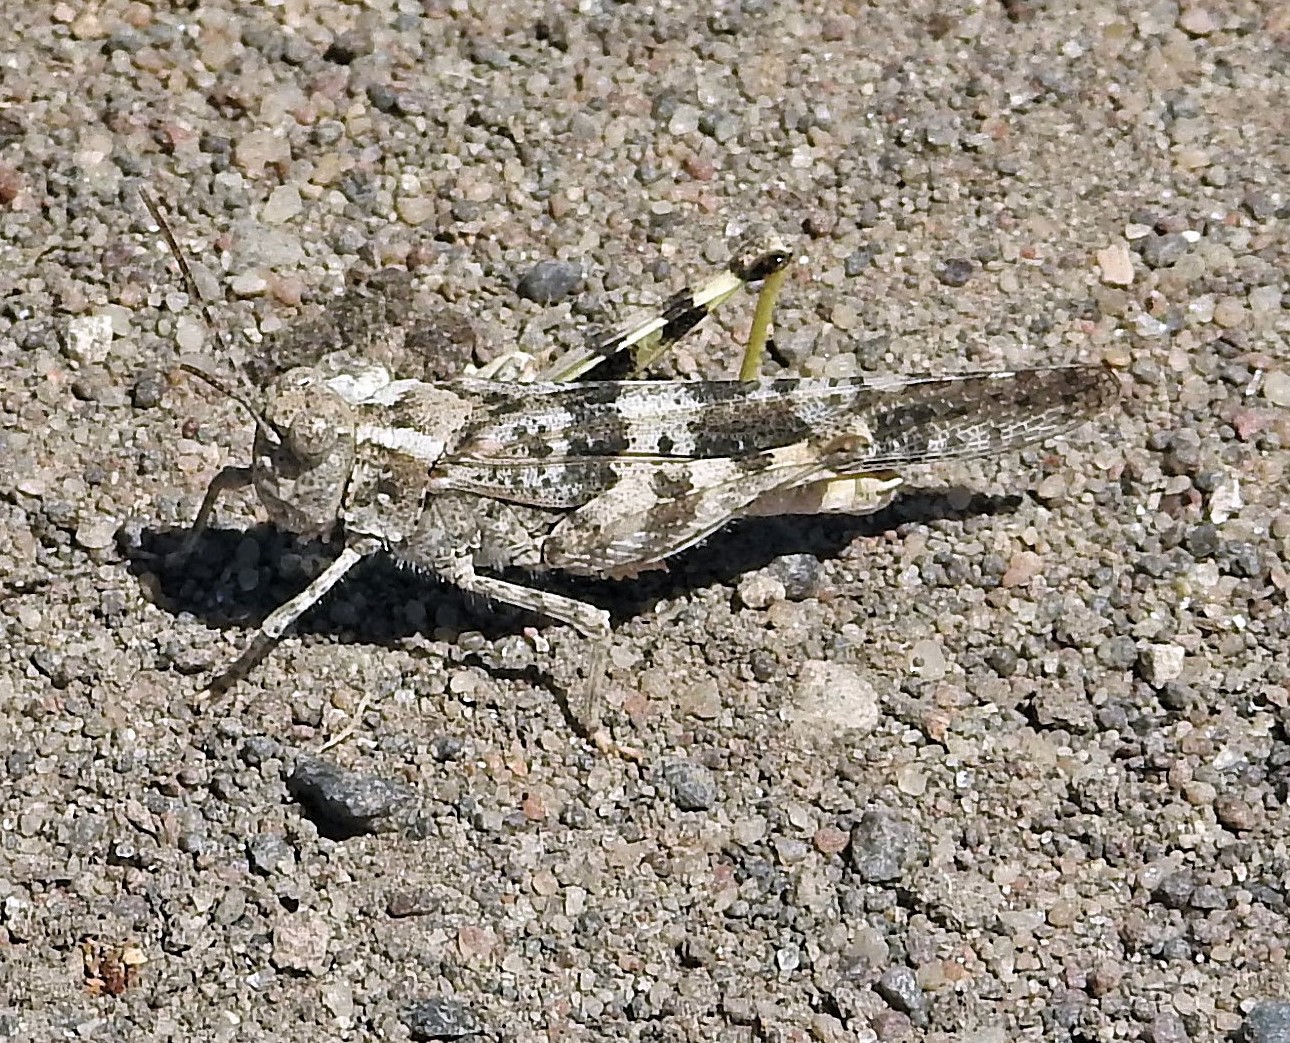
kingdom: Animalia
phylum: Arthropoda
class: Insecta
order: Orthoptera
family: Acrididae
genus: Trimerotropis
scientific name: Trimerotropis pallidipennis
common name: Pallid-winged grasshopper
